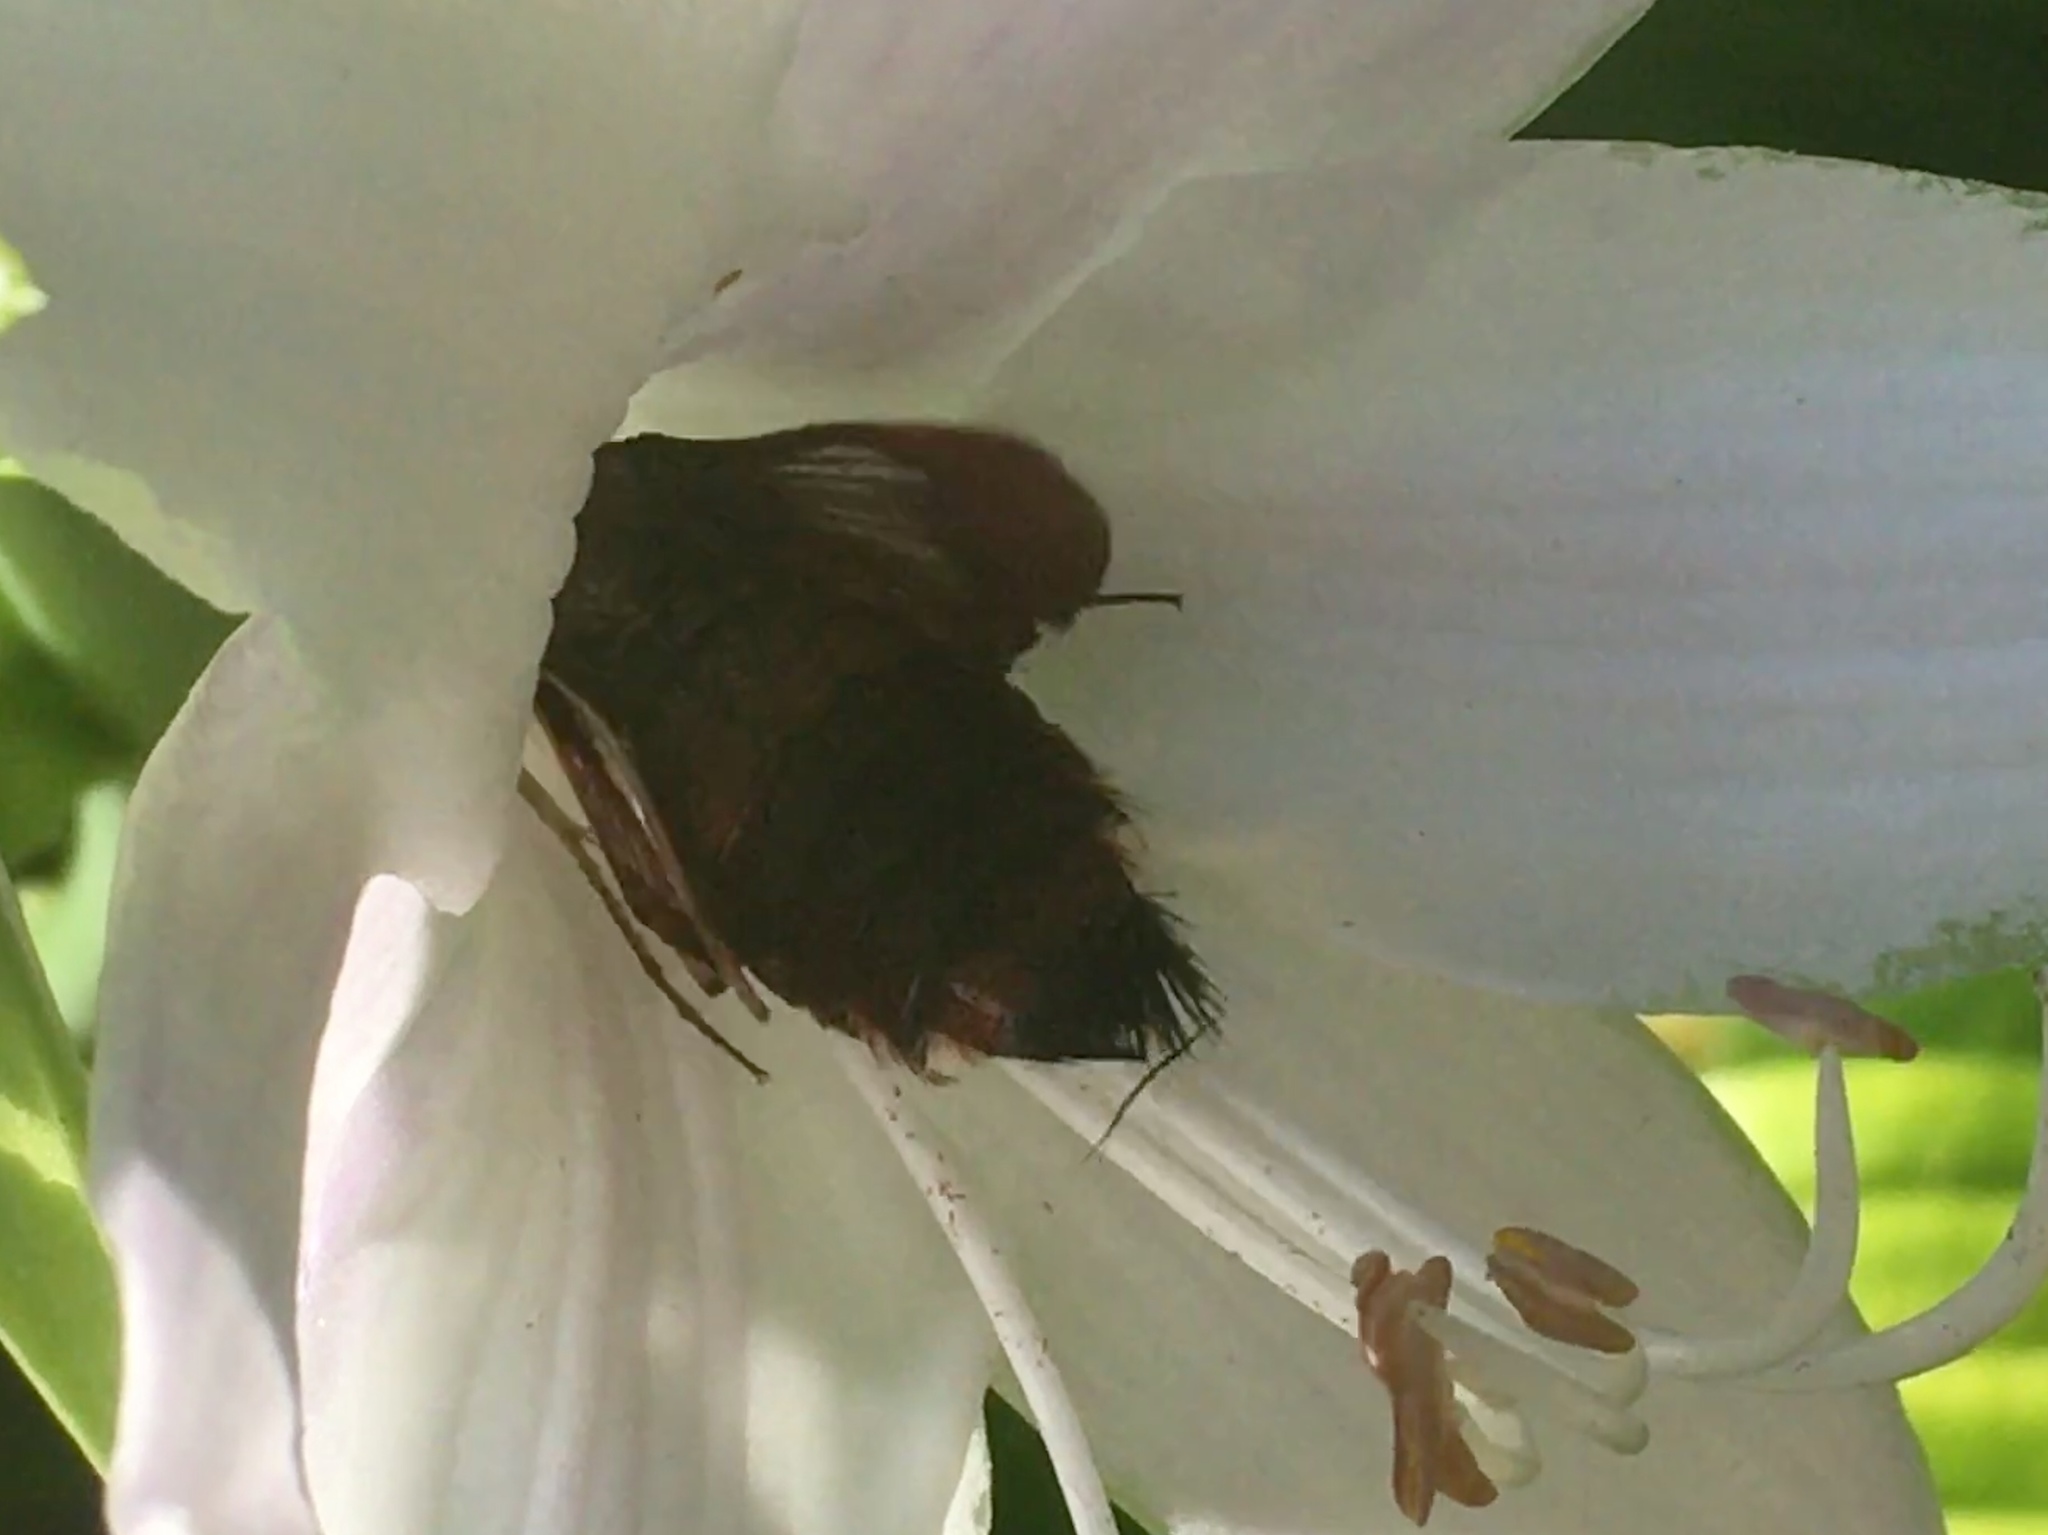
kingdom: Animalia
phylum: Arthropoda
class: Insecta
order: Lepidoptera
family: Sphingidae
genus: Hemaris
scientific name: Hemaris thysbe
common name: Common clear-wing
